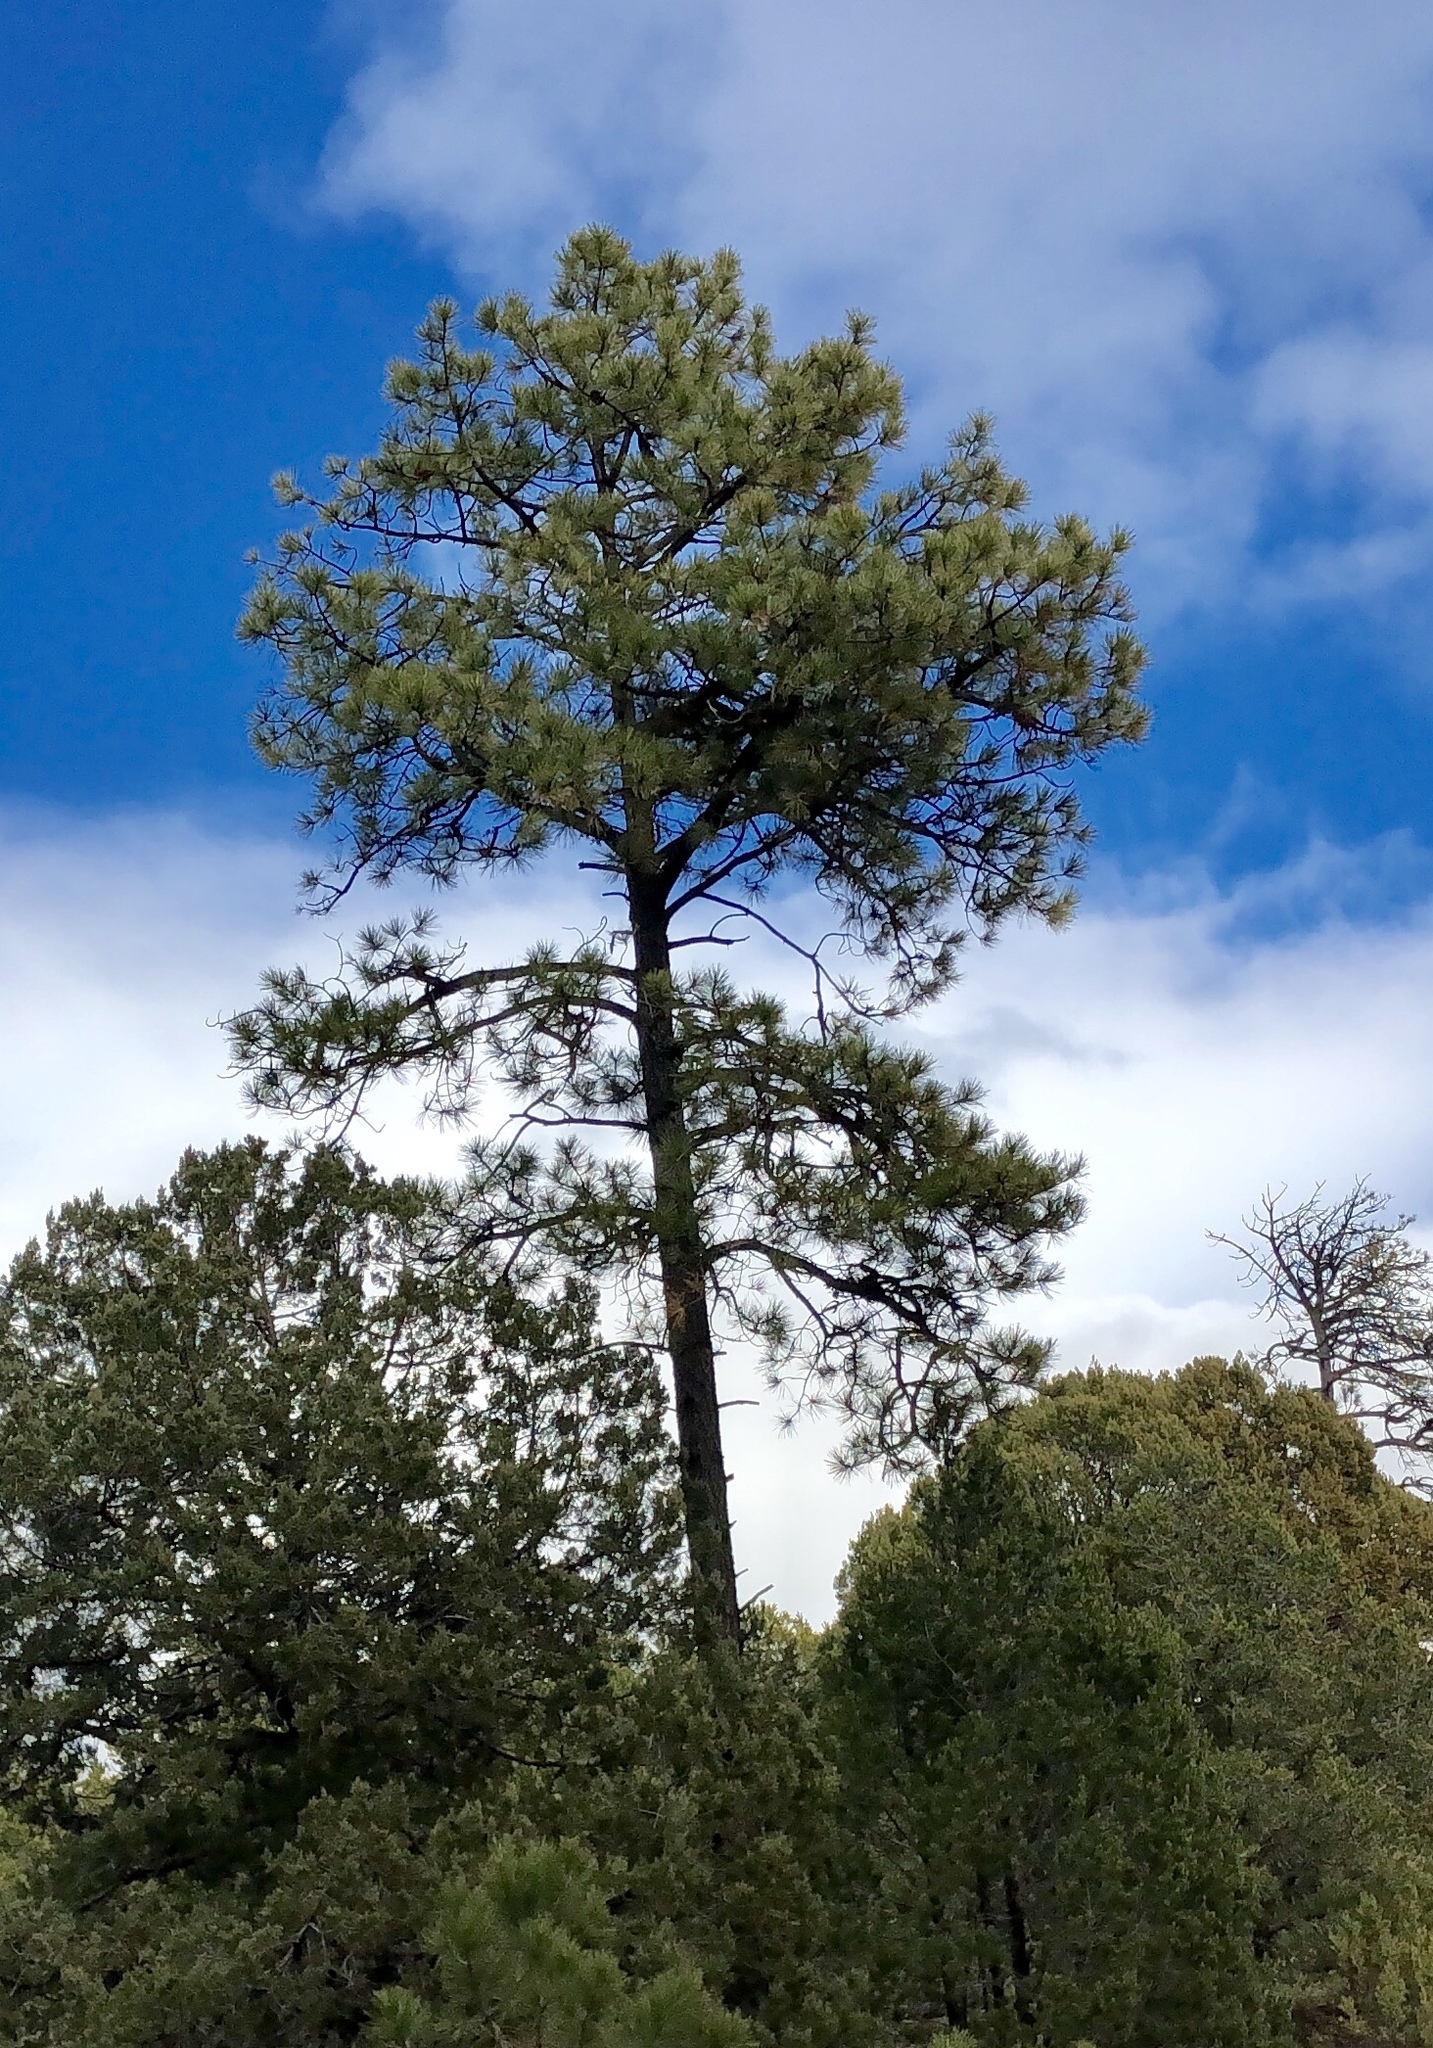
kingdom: Plantae
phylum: Tracheophyta
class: Pinopsida
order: Pinales
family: Pinaceae
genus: Pinus
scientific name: Pinus ponderosa
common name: Western yellow-pine
